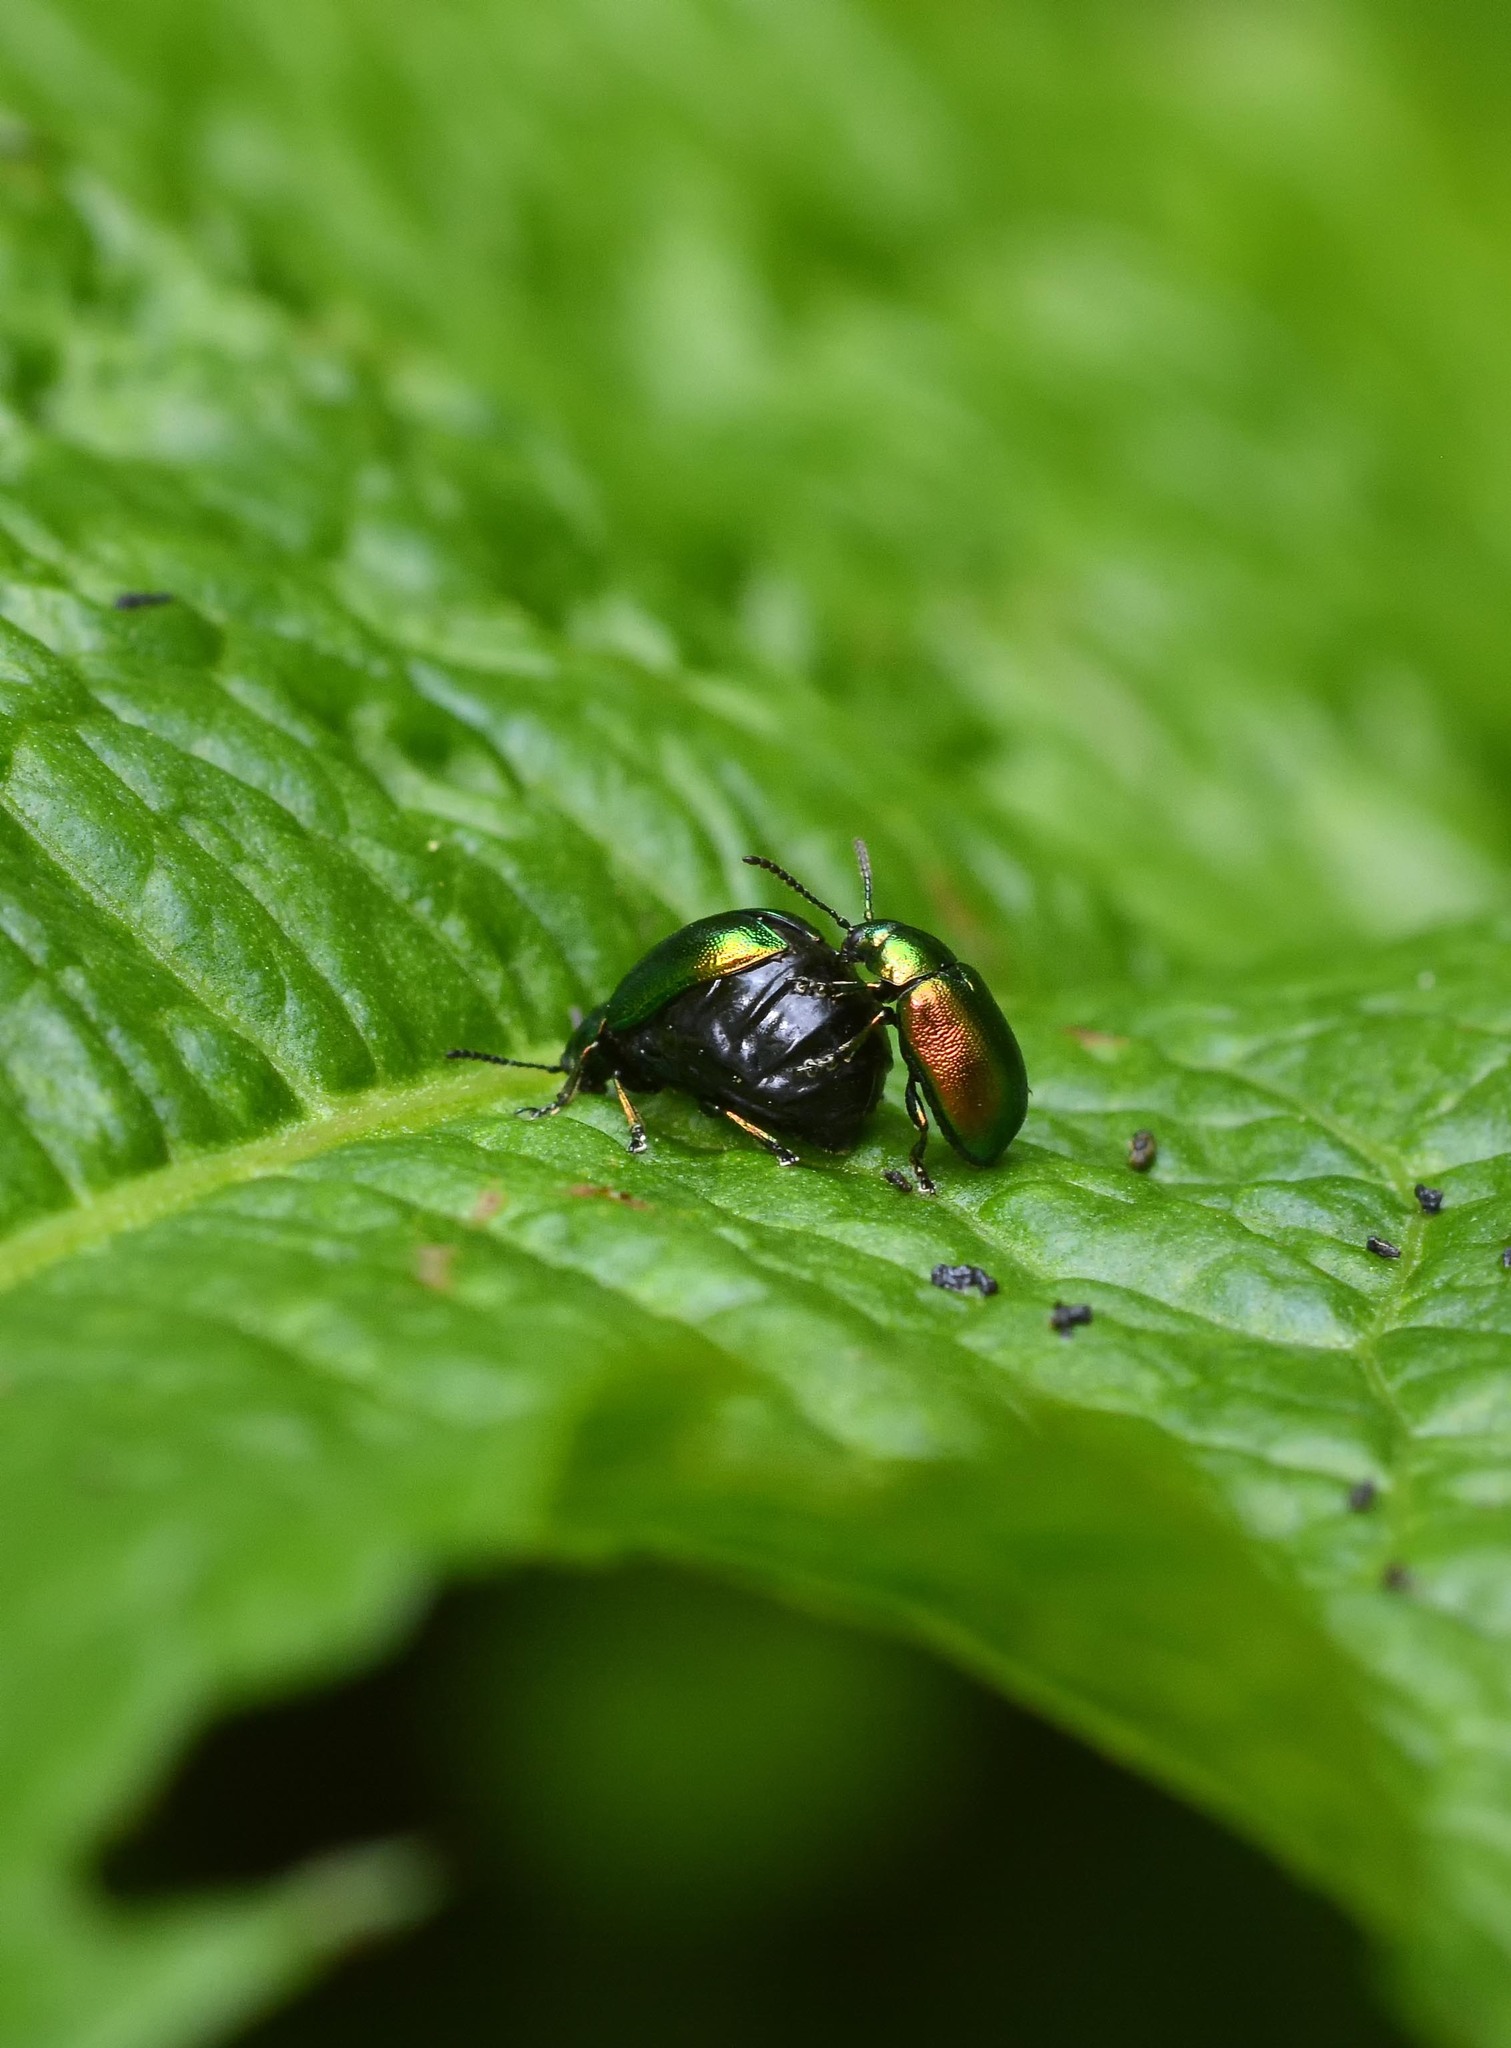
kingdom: Animalia
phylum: Arthropoda
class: Insecta
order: Coleoptera
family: Chrysomelidae
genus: Gastrophysa
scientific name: Gastrophysa viridula
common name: Green dock beetle
